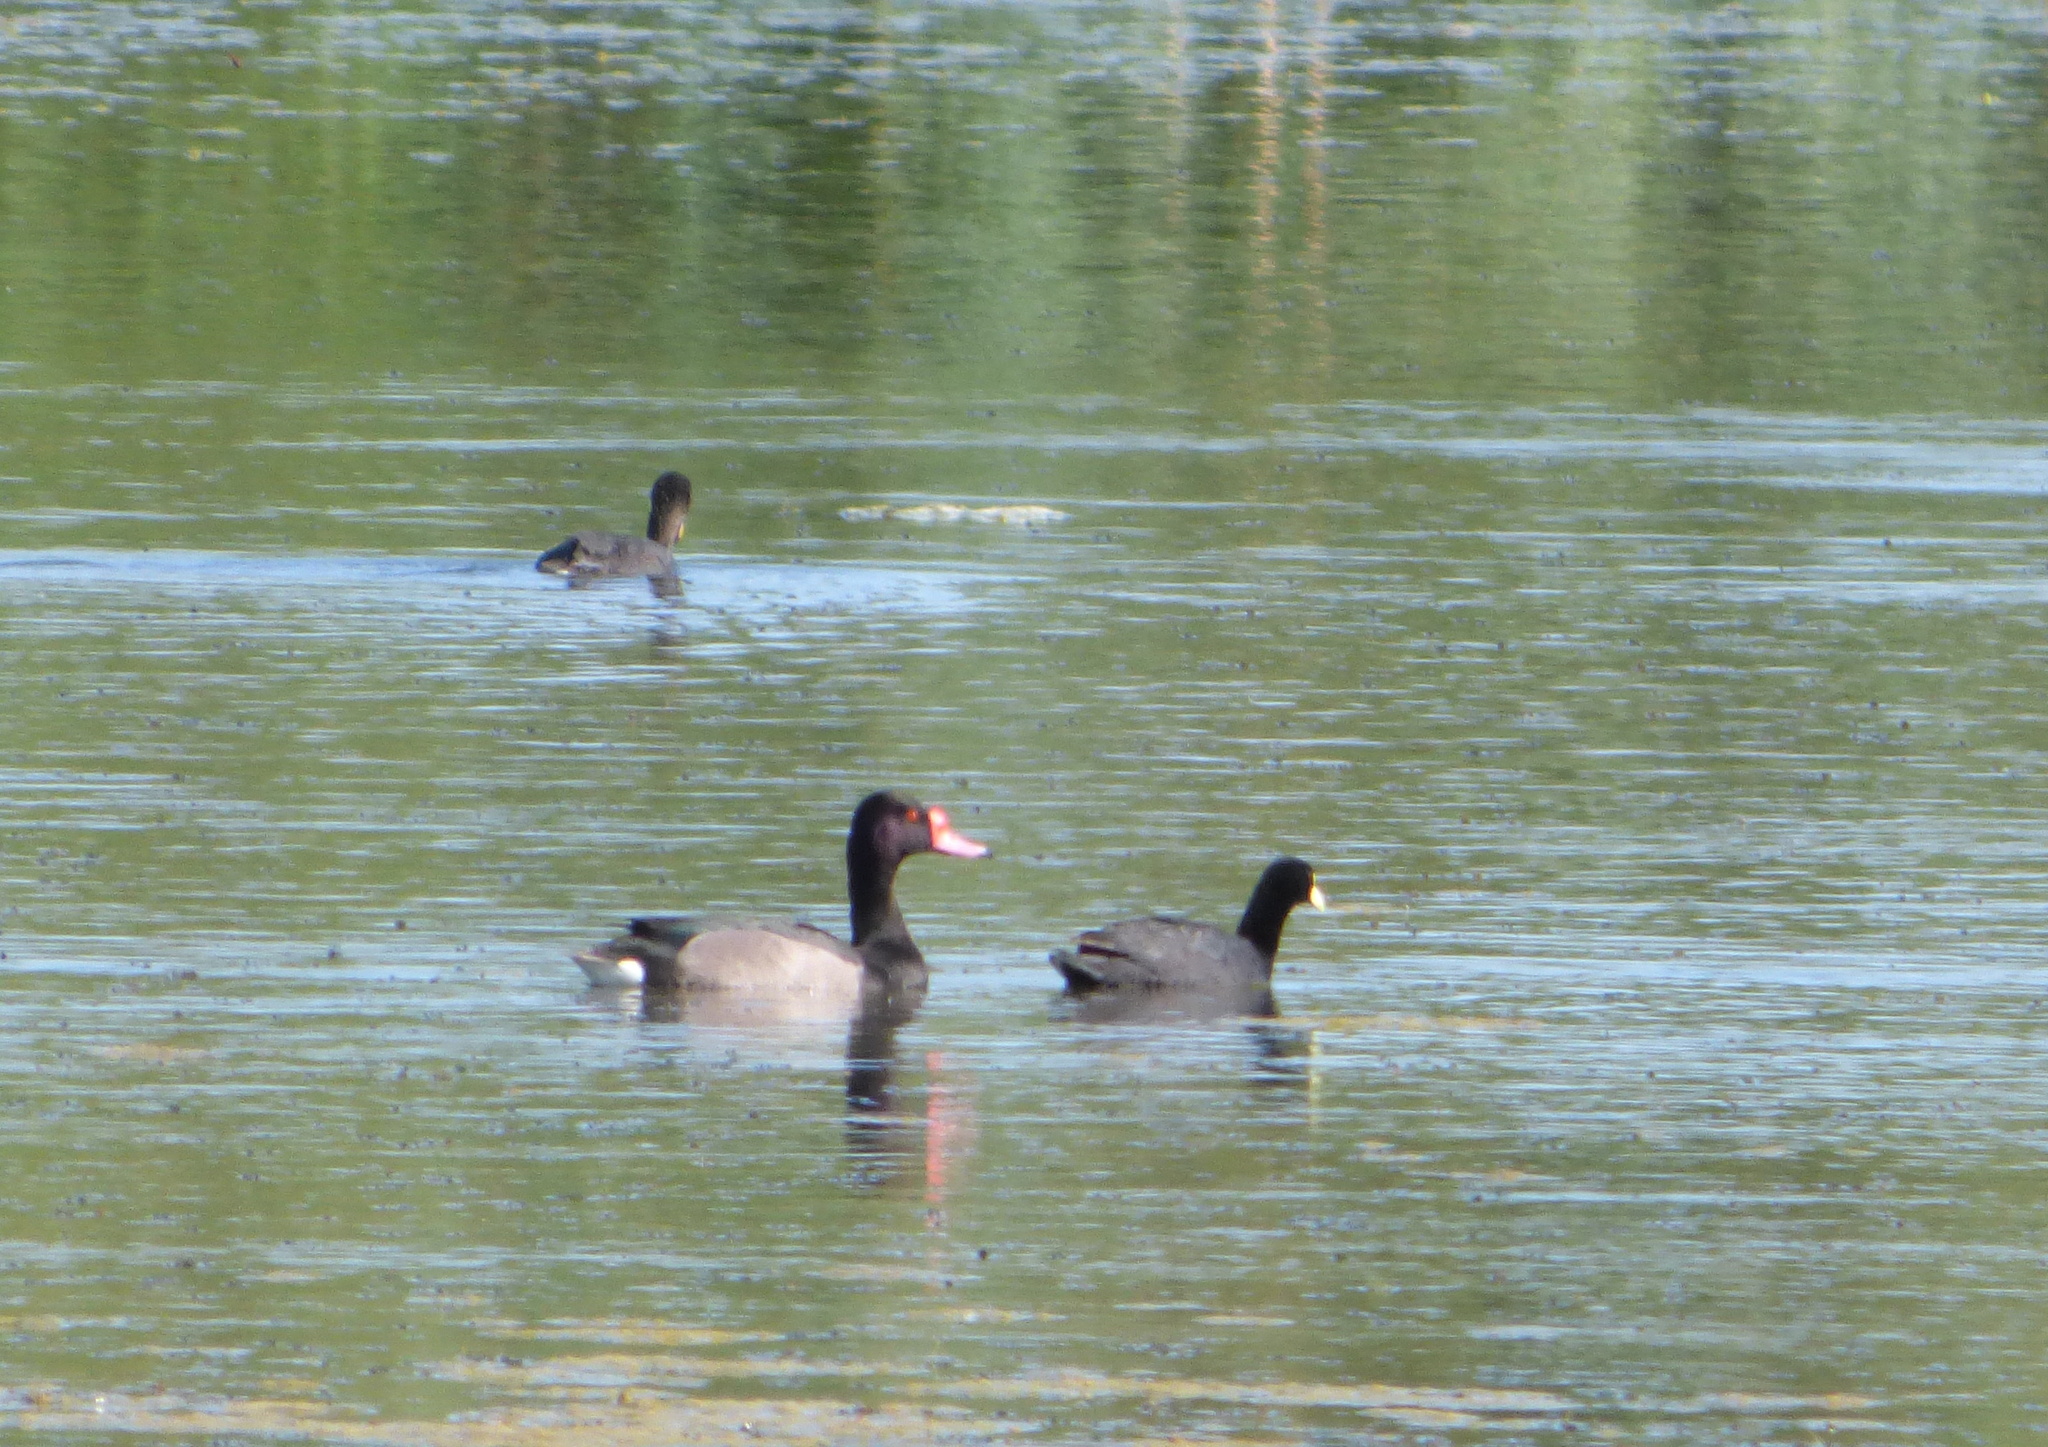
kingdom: Animalia
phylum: Chordata
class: Aves
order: Anseriformes
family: Anatidae
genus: Netta
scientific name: Netta peposaca
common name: Rosy-billed pochard
